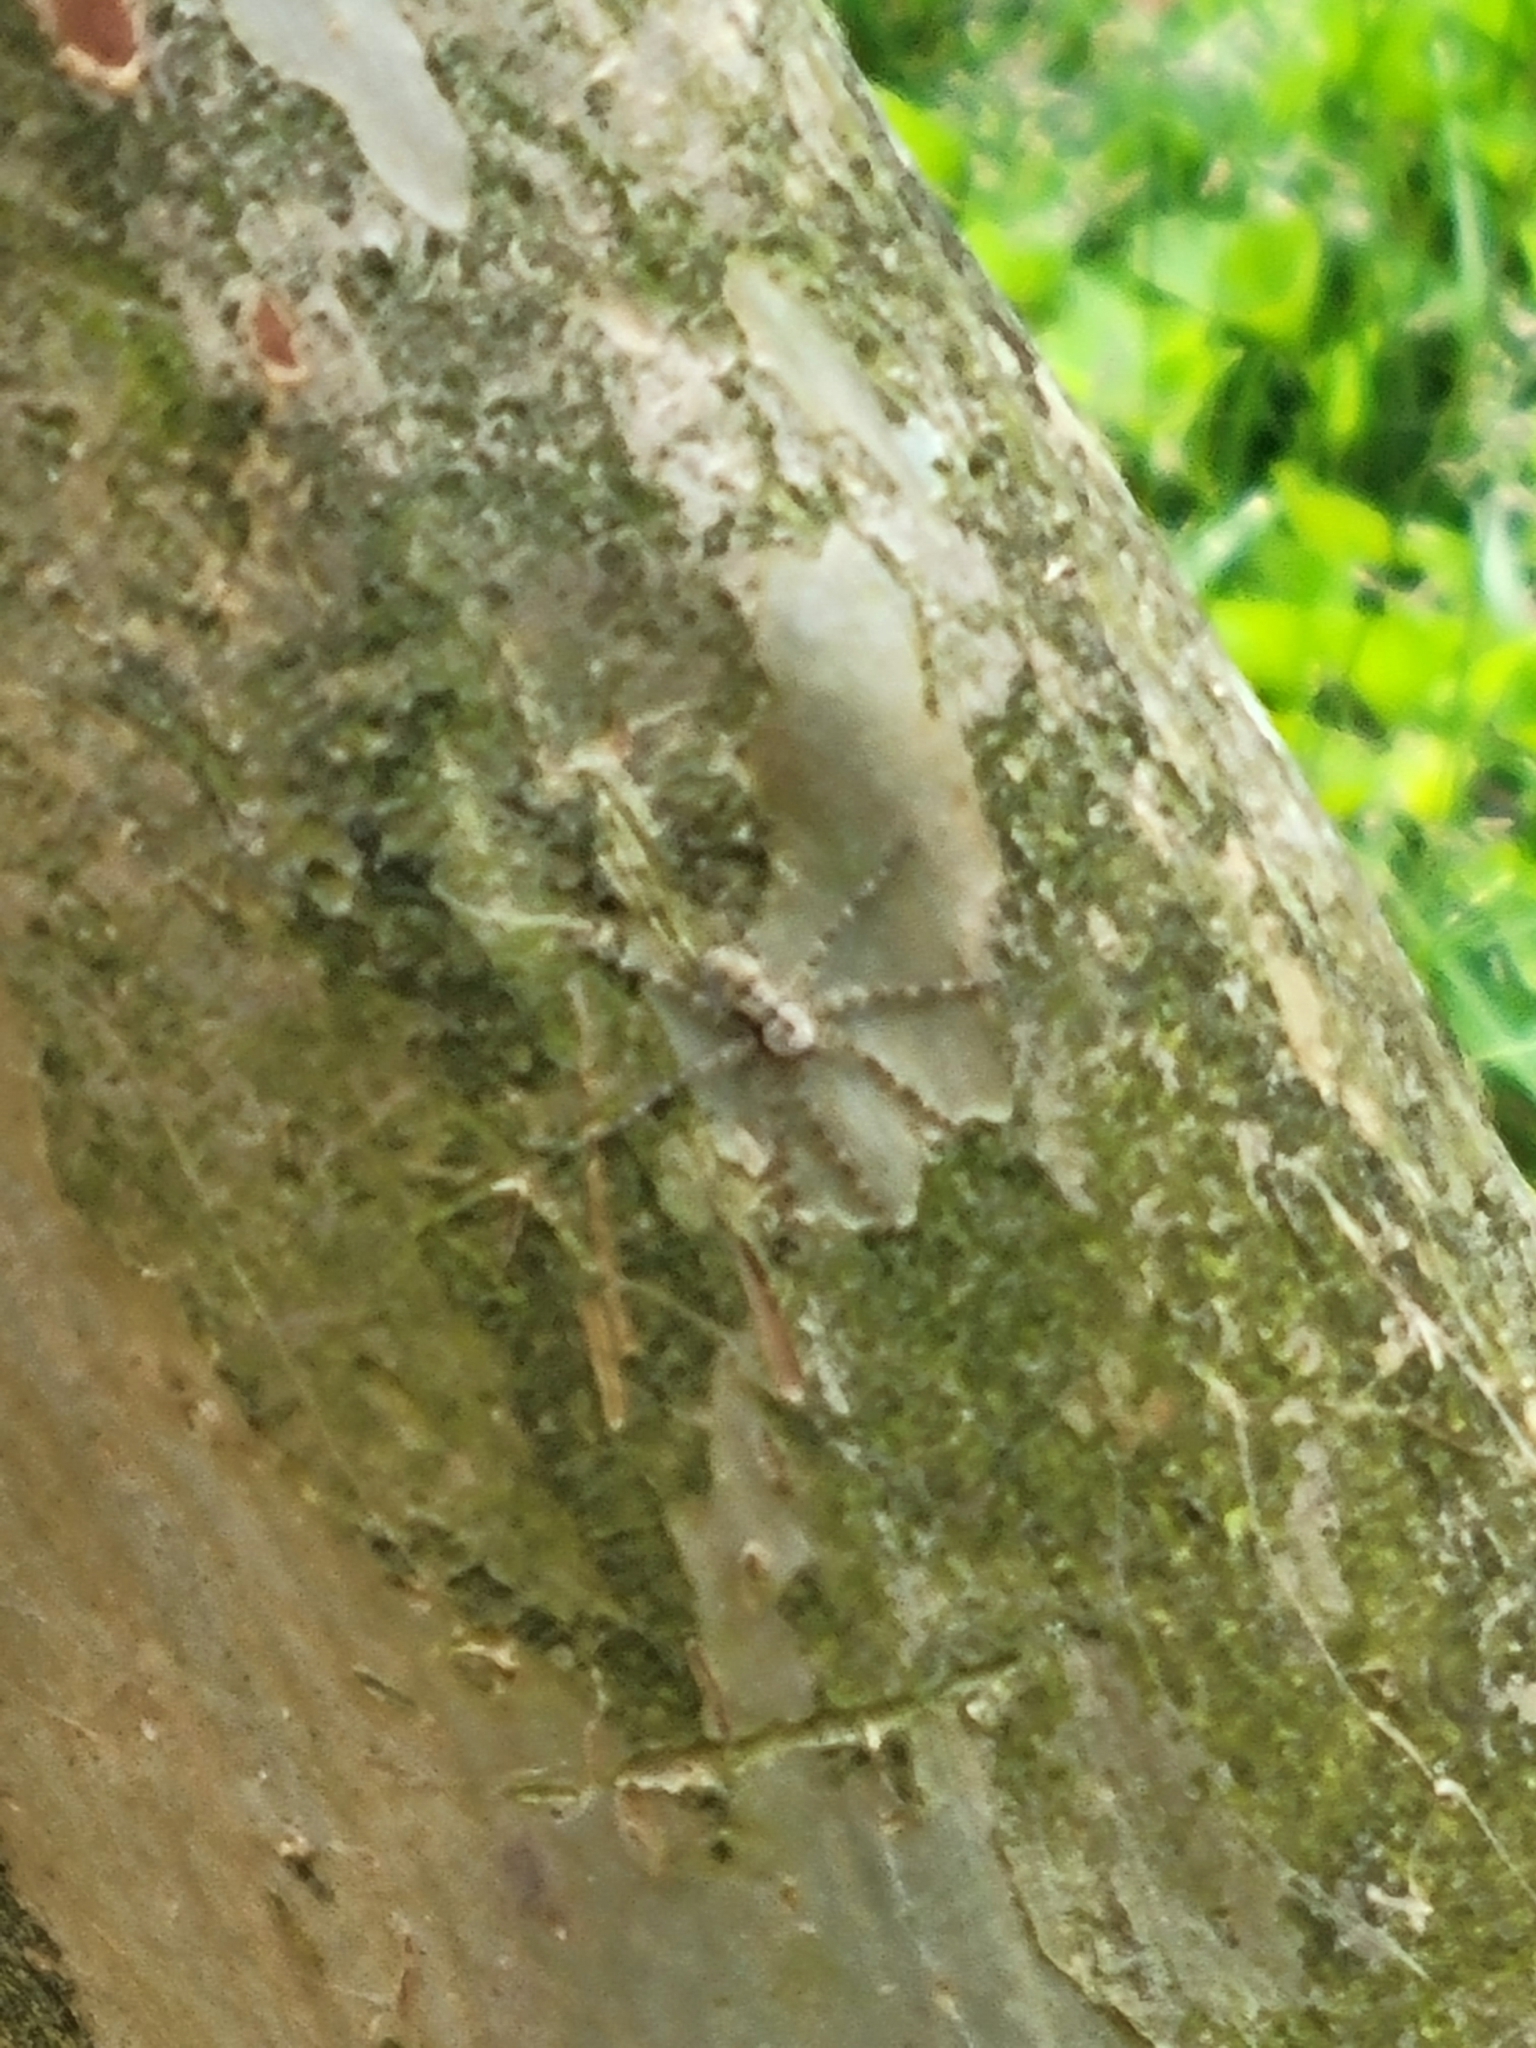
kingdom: Animalia
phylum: Arthropoda
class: Arachnida
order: Araneae
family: Pisauridae
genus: Dolomedes
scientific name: Dolomedes albineus
